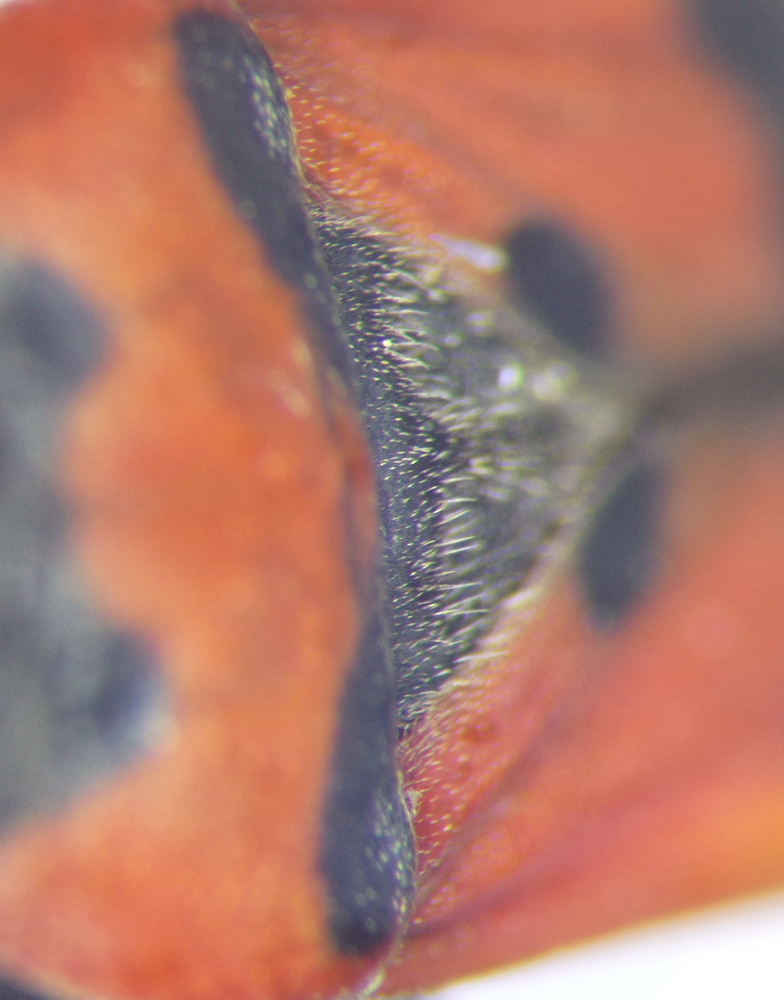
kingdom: Animalia
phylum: Arthropoda
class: Insecta
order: Hemiptera
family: Lygaeidae
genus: Lygaeus
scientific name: Lygaeus simulans
